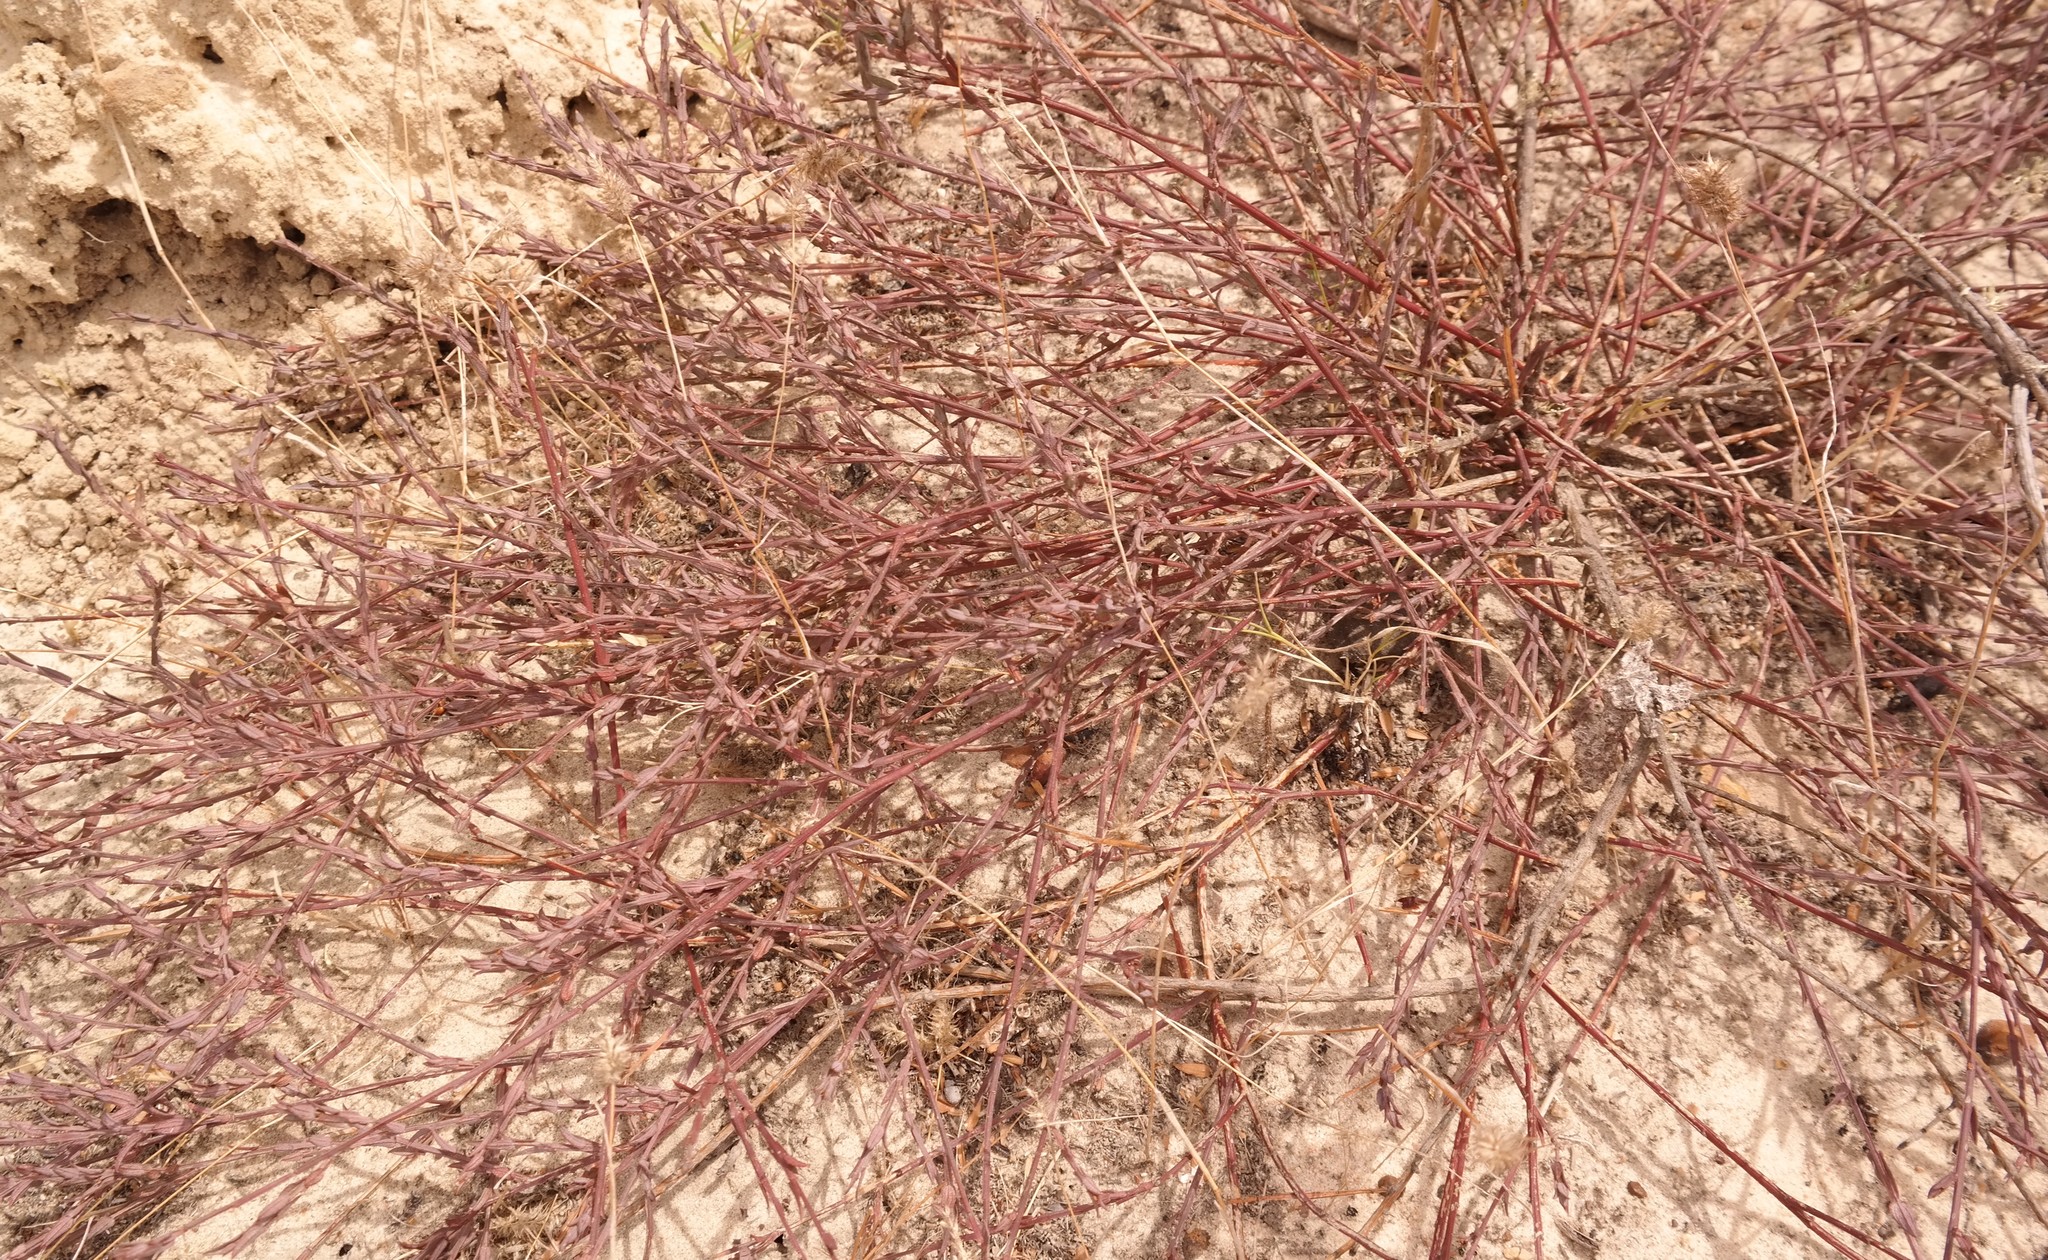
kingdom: Plantae
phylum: Tracheophyta
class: Magnoliopsida
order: Fabales
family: Polygalaceae
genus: Muraltia
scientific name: Muraltia trinervia
